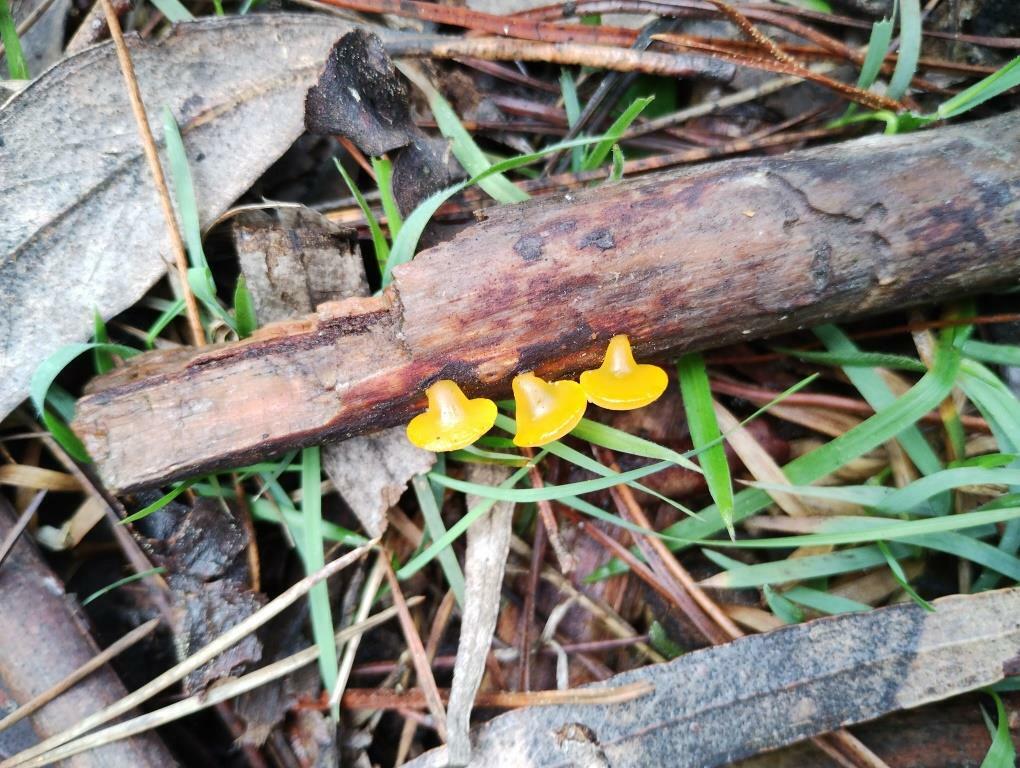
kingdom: Fungi
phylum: Basidiomycota
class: Dacrymycetes
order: Dacrymycetales
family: Dacrymycetaceae
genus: Heterotextus
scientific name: Heterotextus peziziformis
